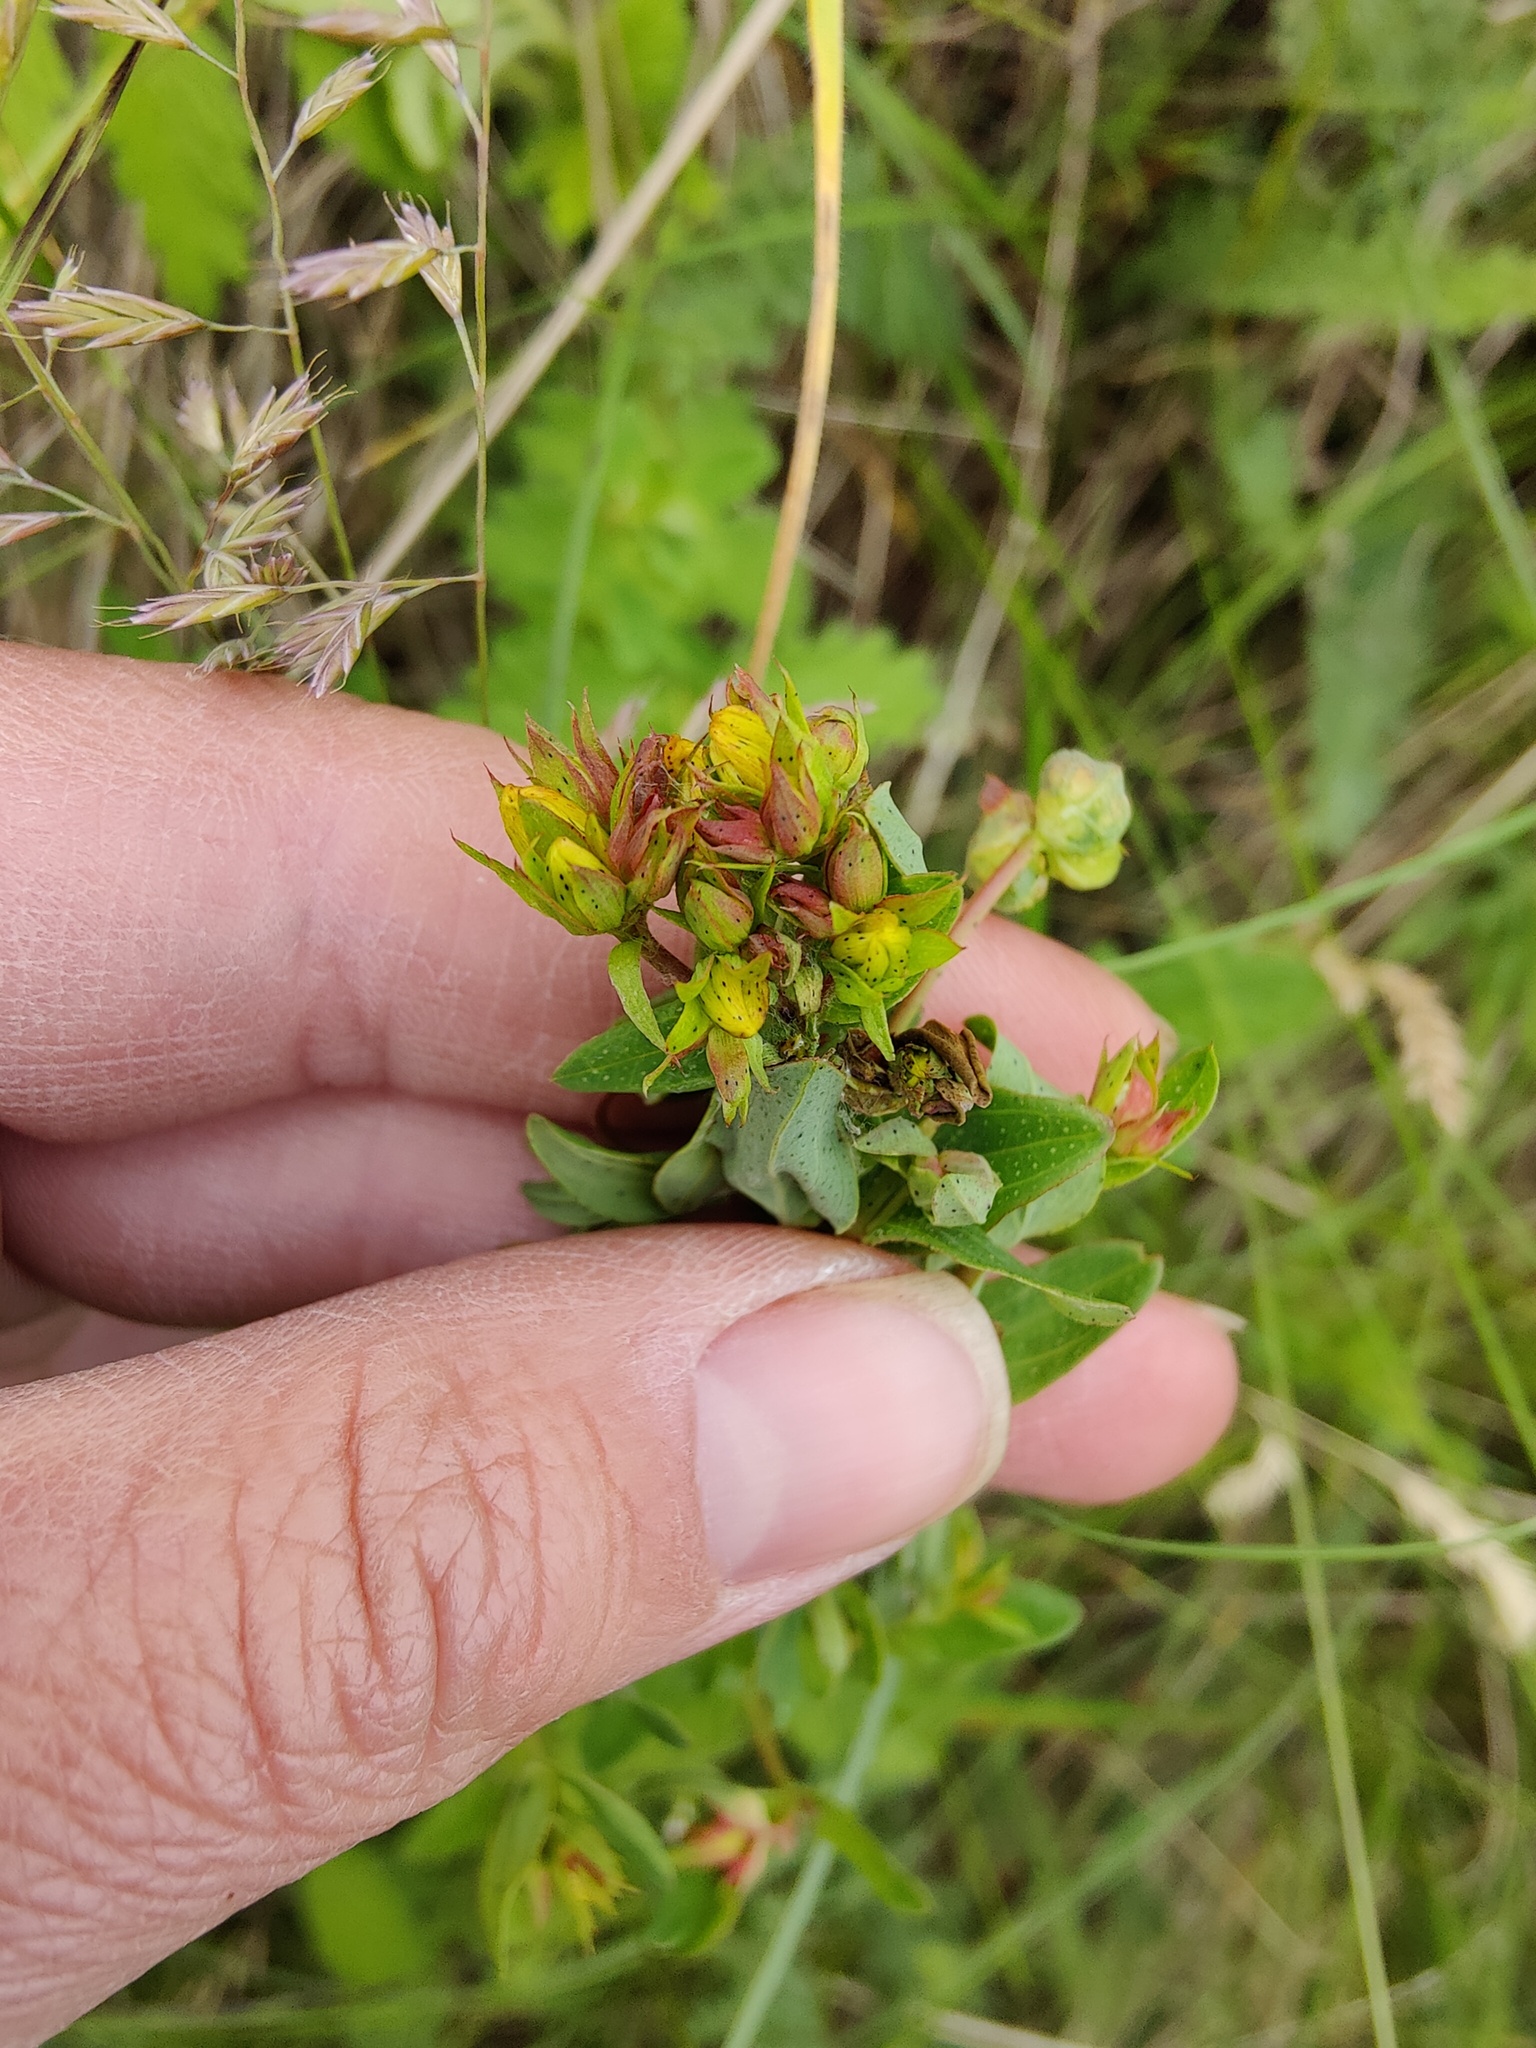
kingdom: Plantae
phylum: Tracheophyta
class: Magnoliopsida
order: Malpighiales
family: Hypericaceae
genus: Hypericum
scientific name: Hypericum perforatum
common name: Common st. johnswort
